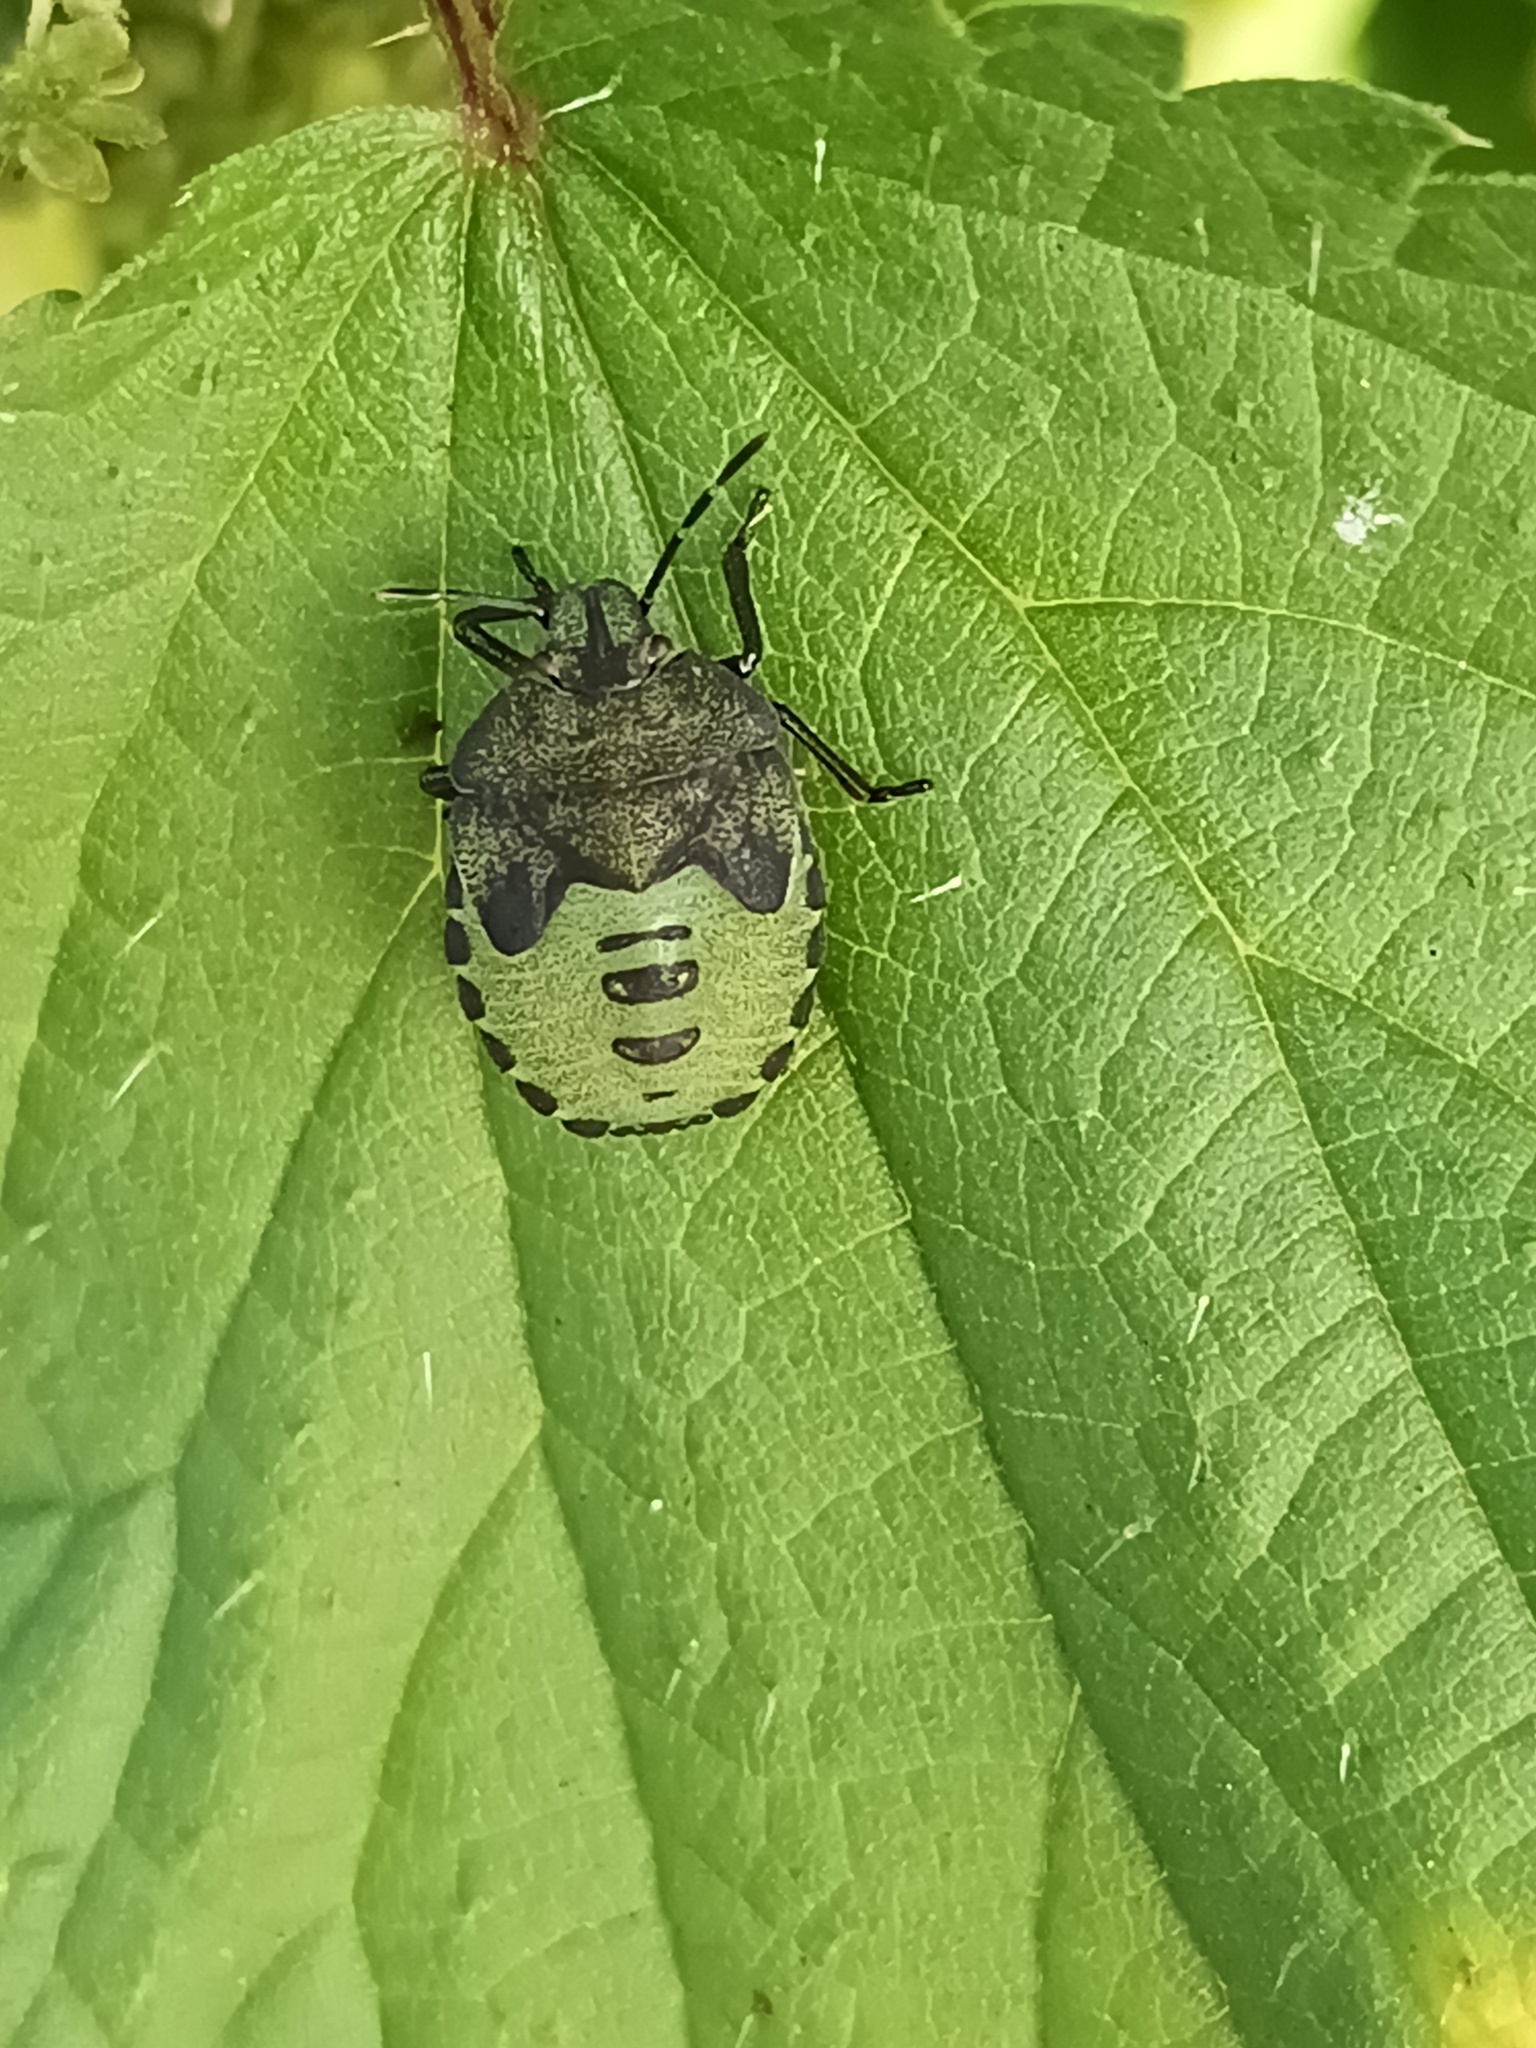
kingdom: Animalia
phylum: Arthropoda
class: Insecta
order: Hemiptera
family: Pentatomidae
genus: Palomena
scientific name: Palomena prasina
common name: Green shieldbug
